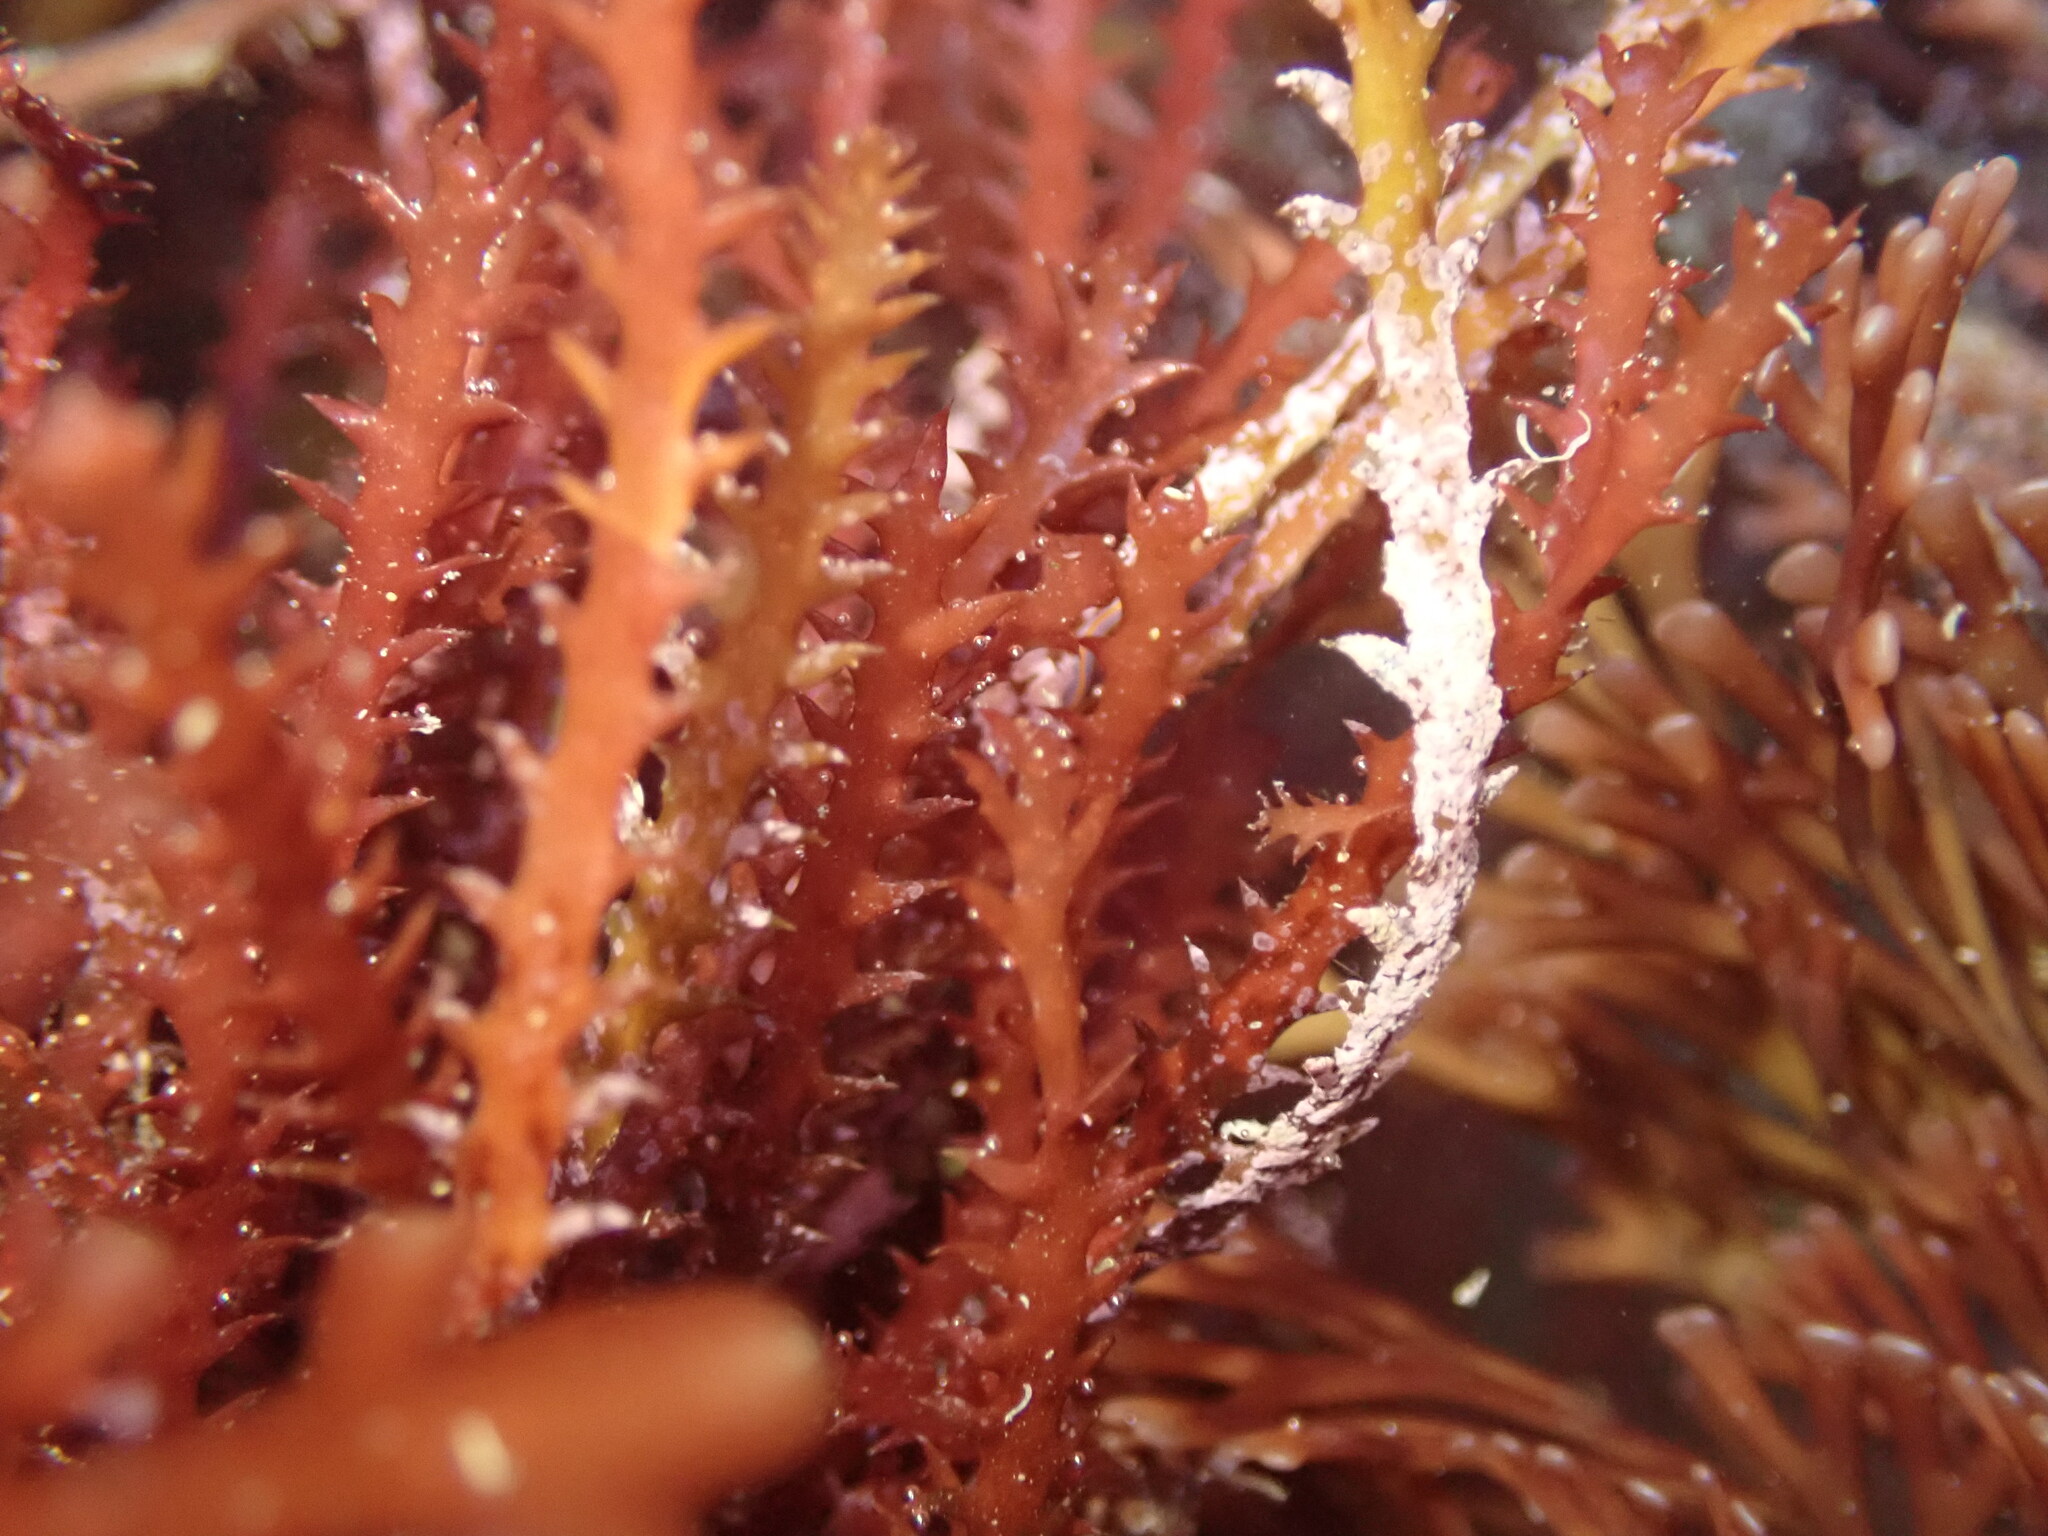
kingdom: Plantae
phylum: Rhodophyta
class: Florideophyceae
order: Ceramiales
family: Rhodomelaceae
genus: Vidalia
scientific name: Vidalia colensoi
